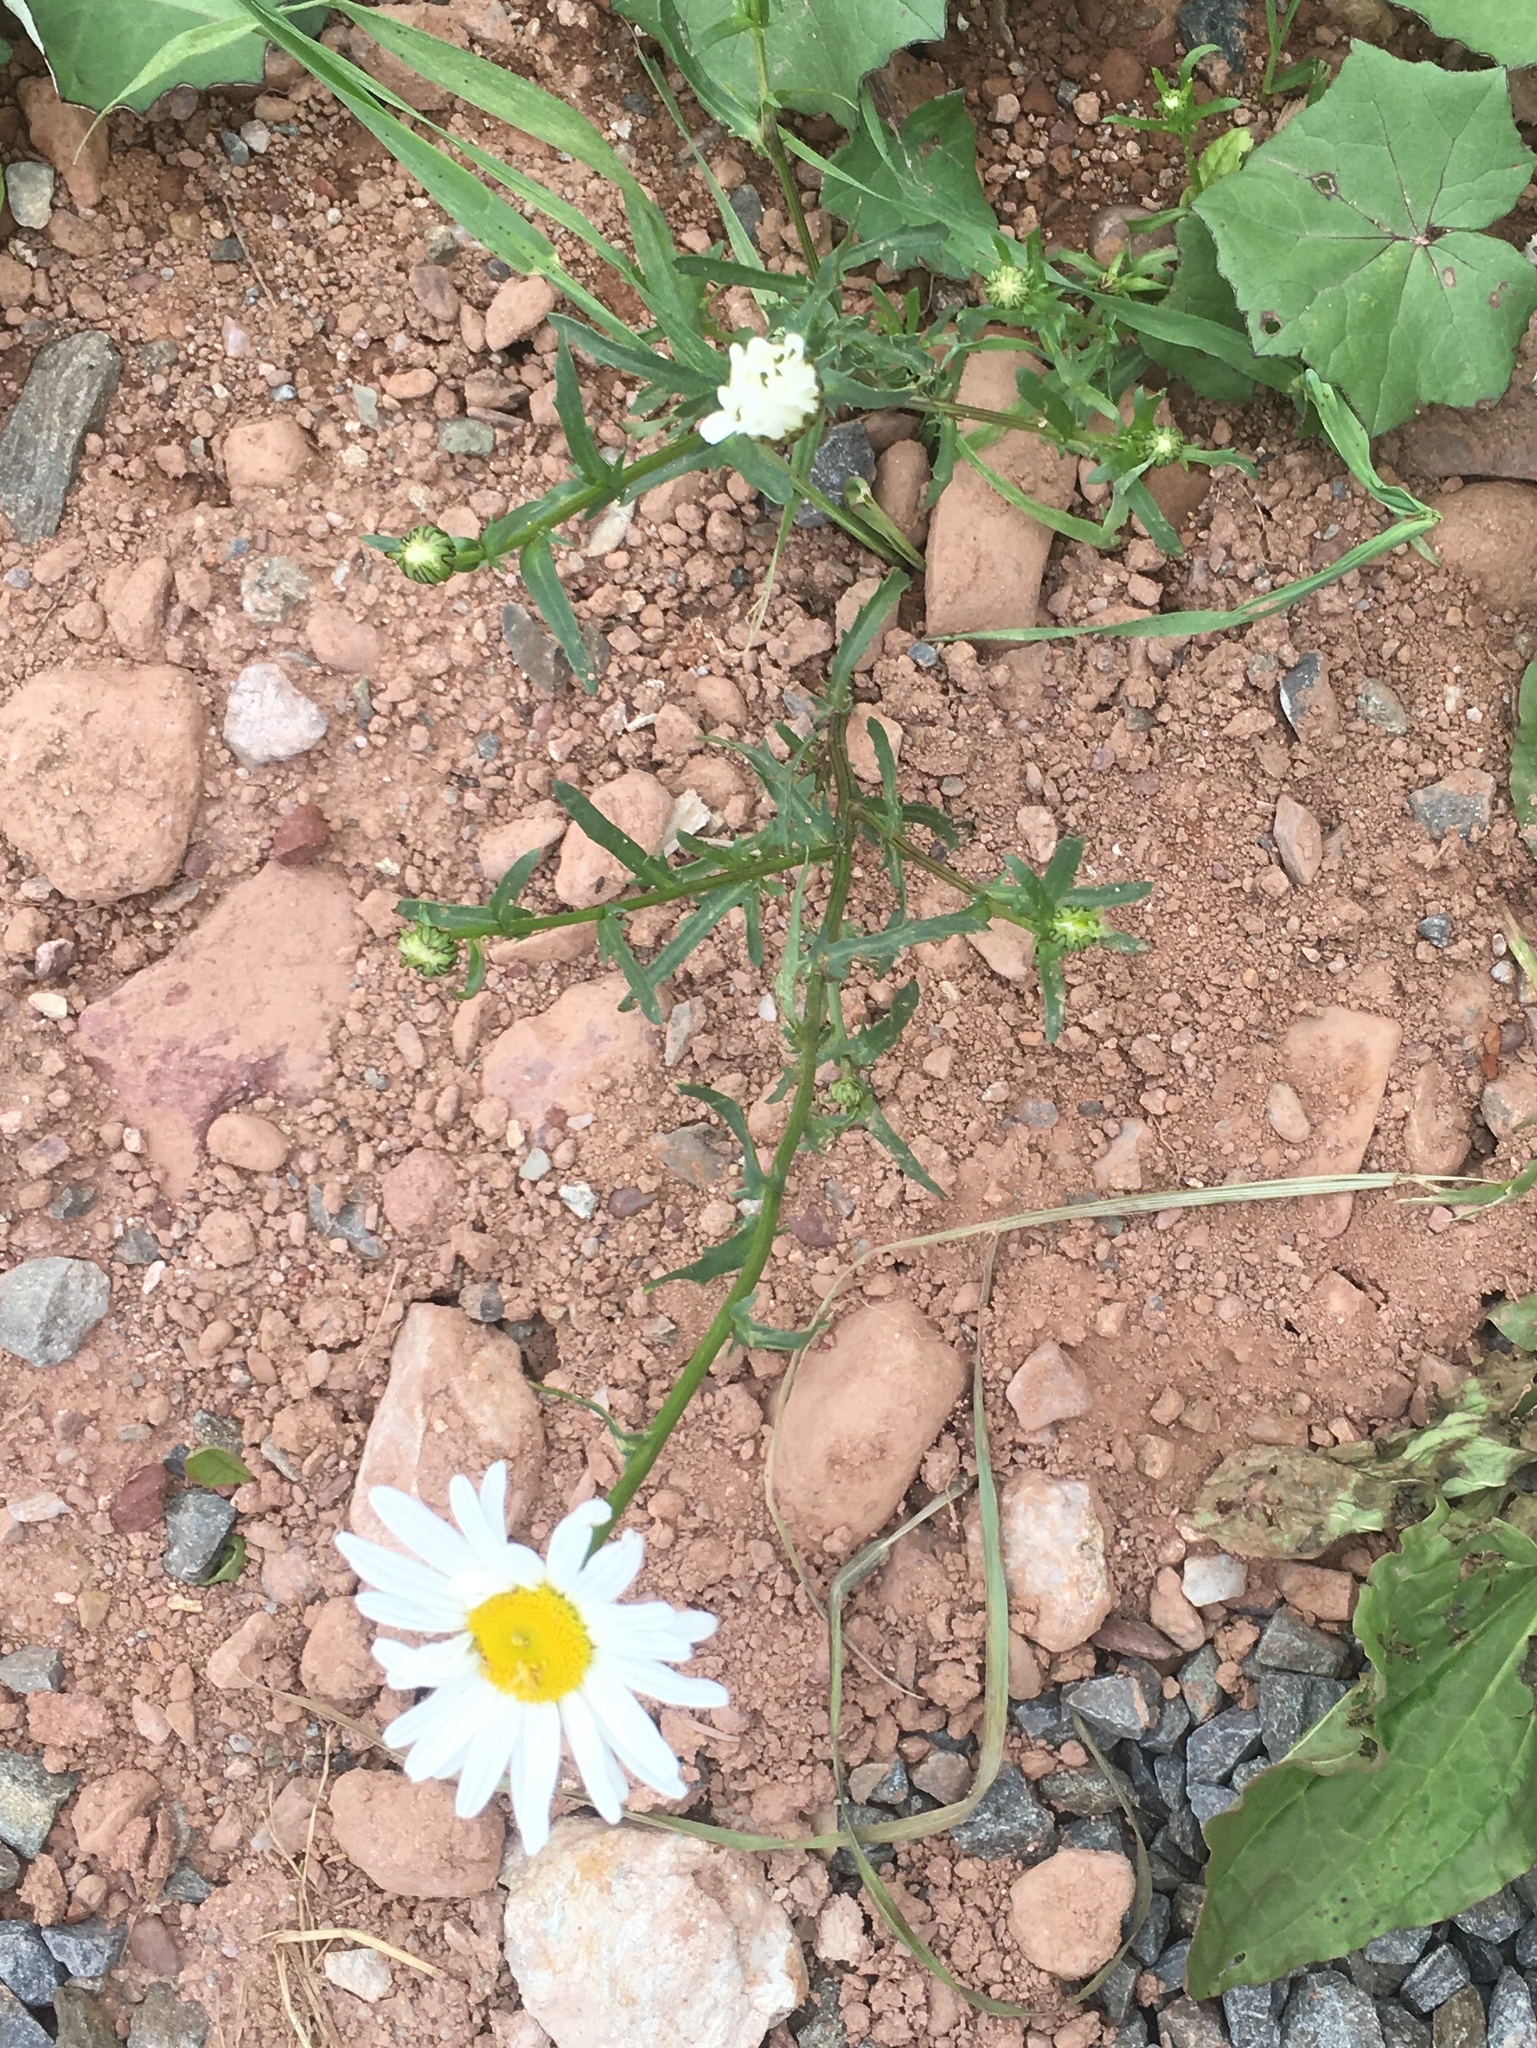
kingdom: Plantae
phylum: Tracheophyta
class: Magnoliopsida
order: Asterales
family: Asteraceae
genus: Leucanthemum
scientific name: Leucanthemum vulgare
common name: Oxeye daisy
